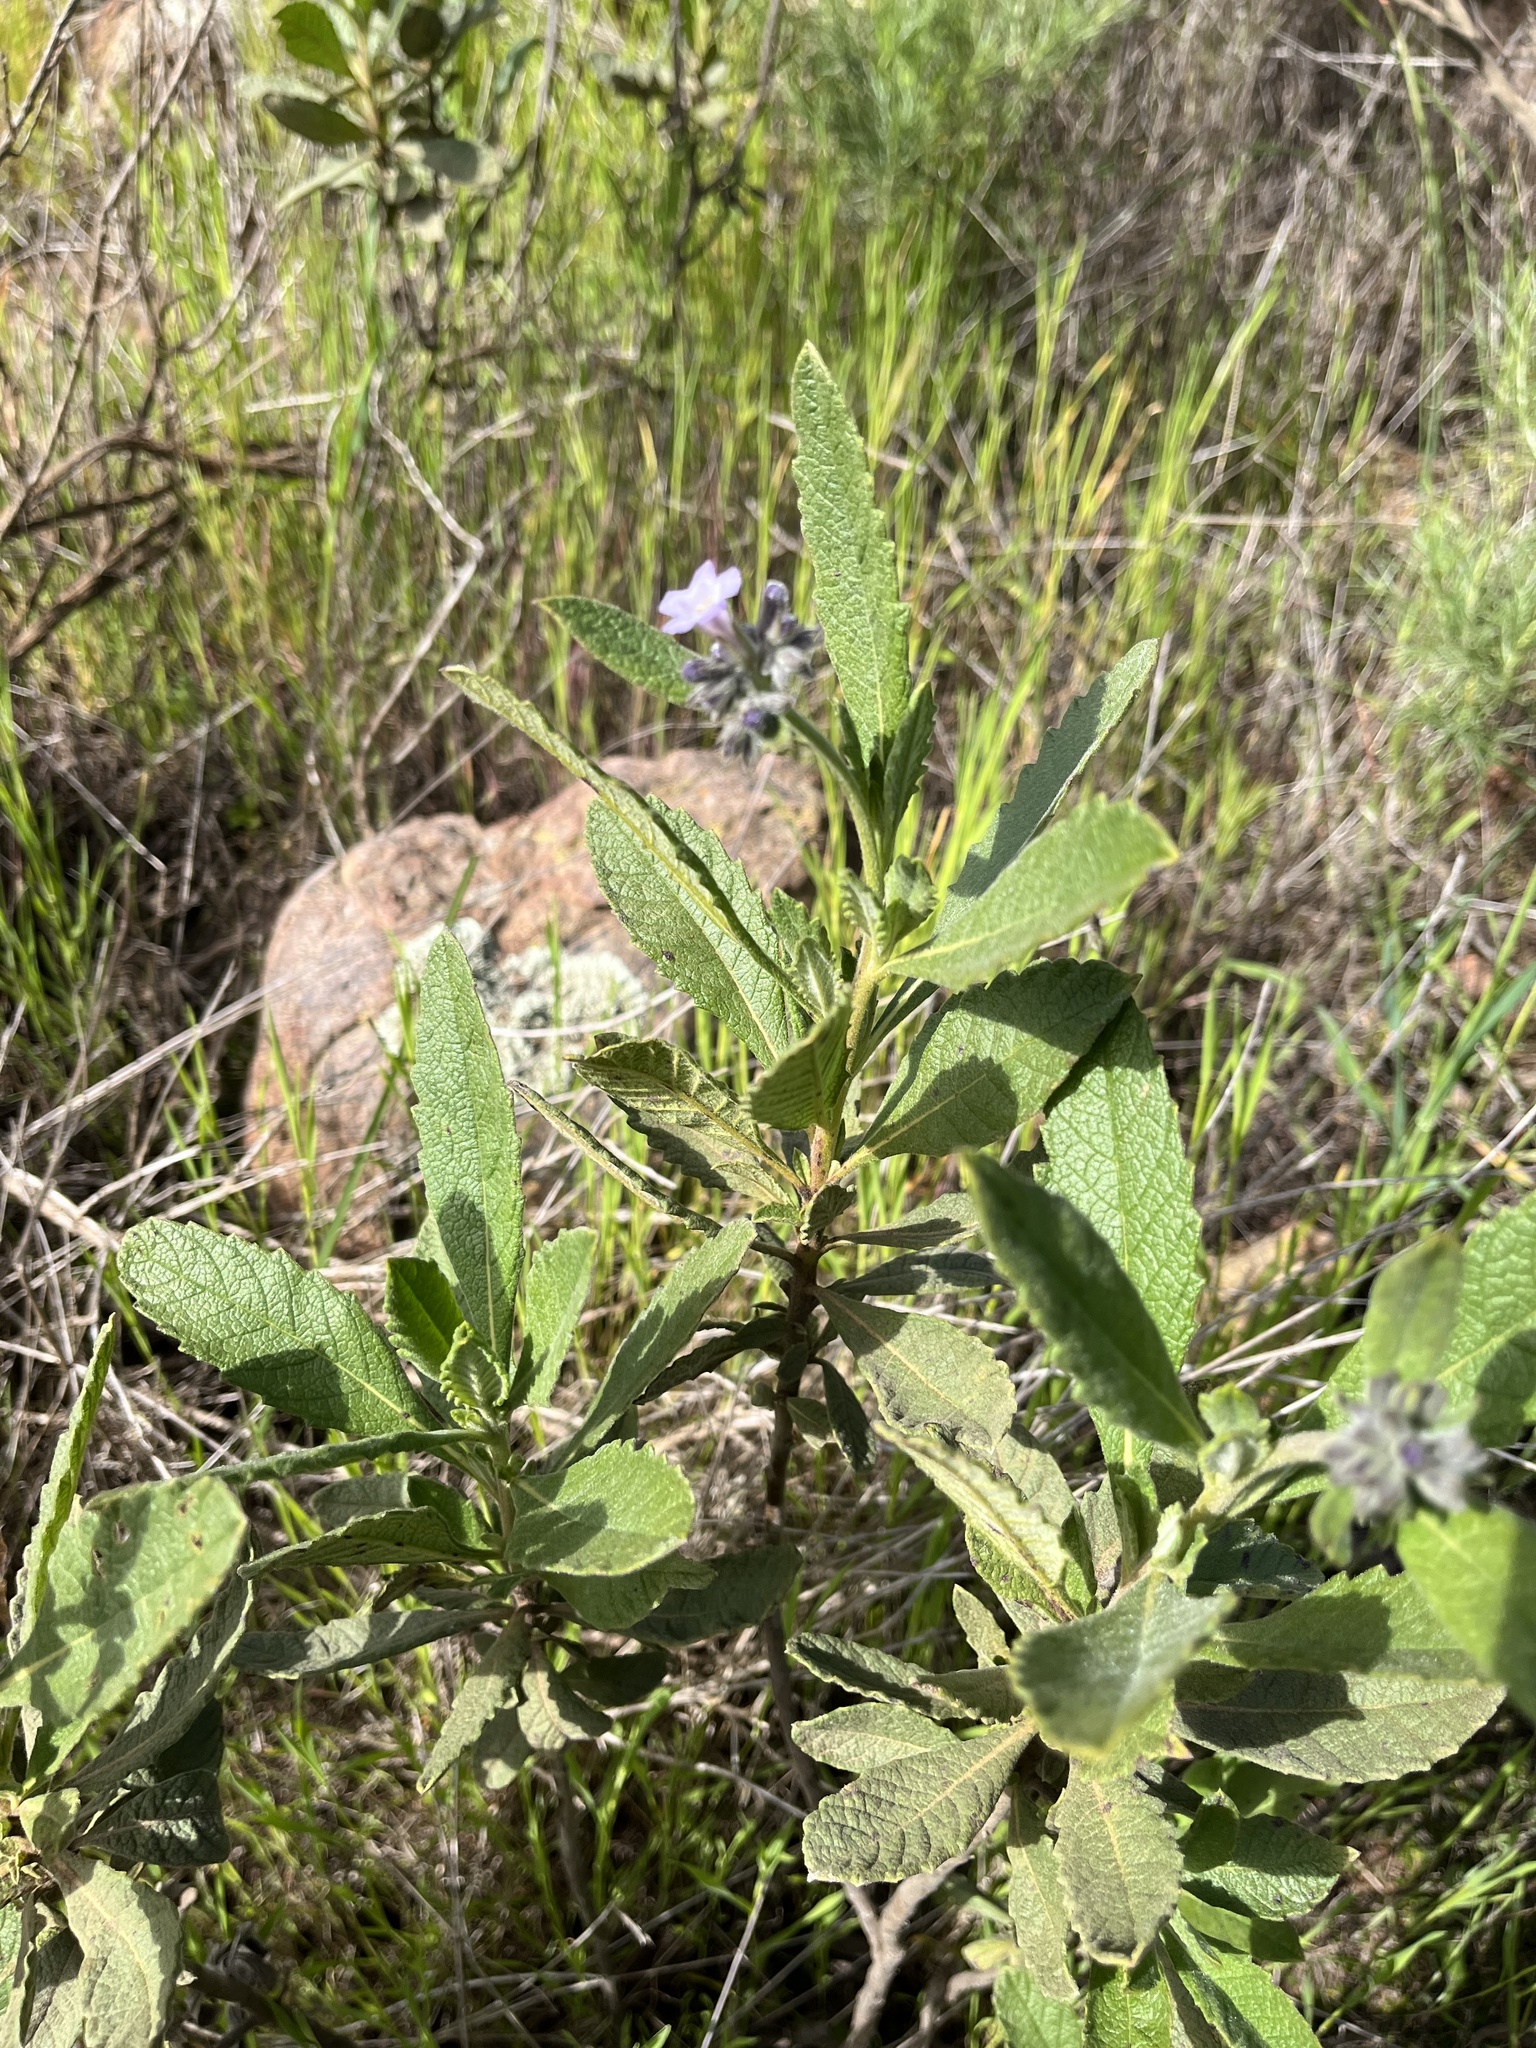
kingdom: Plantae
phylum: Tracheophyta
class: Magnoliopsida
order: Boraginales
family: Namaceae
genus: Eriodictyon
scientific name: Eriodictyon crassifolium
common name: Thick-leaf yerba-santa
